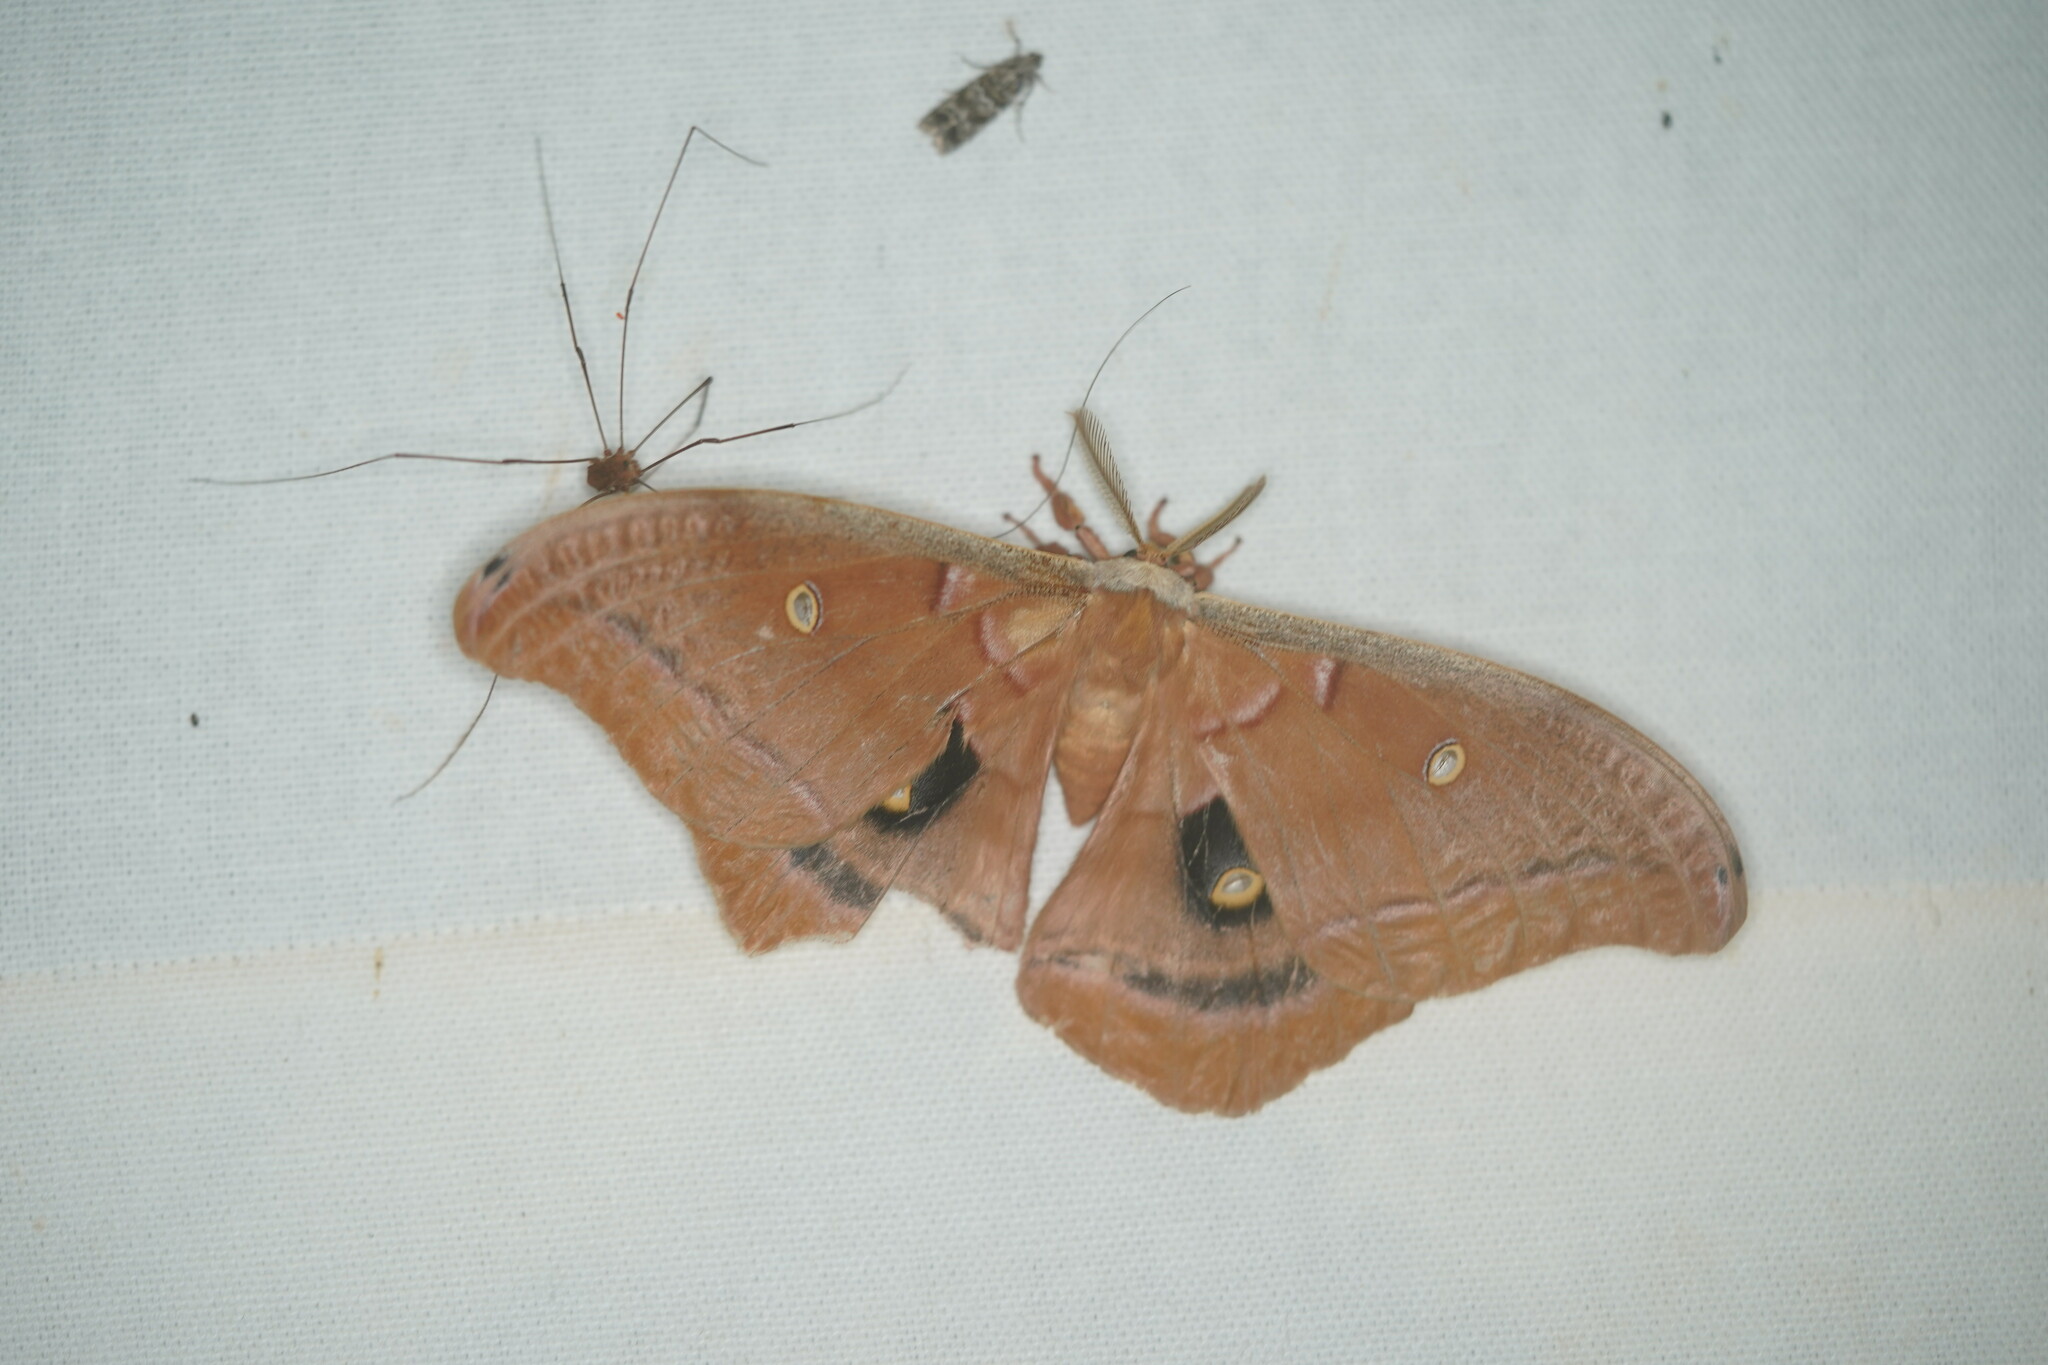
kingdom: Animalia
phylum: Arthropoda
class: Insecta
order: Lepidoptera
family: Saturniidae
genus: Antheraea
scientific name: Antheraea polyphemus
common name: Polyphemus moth
